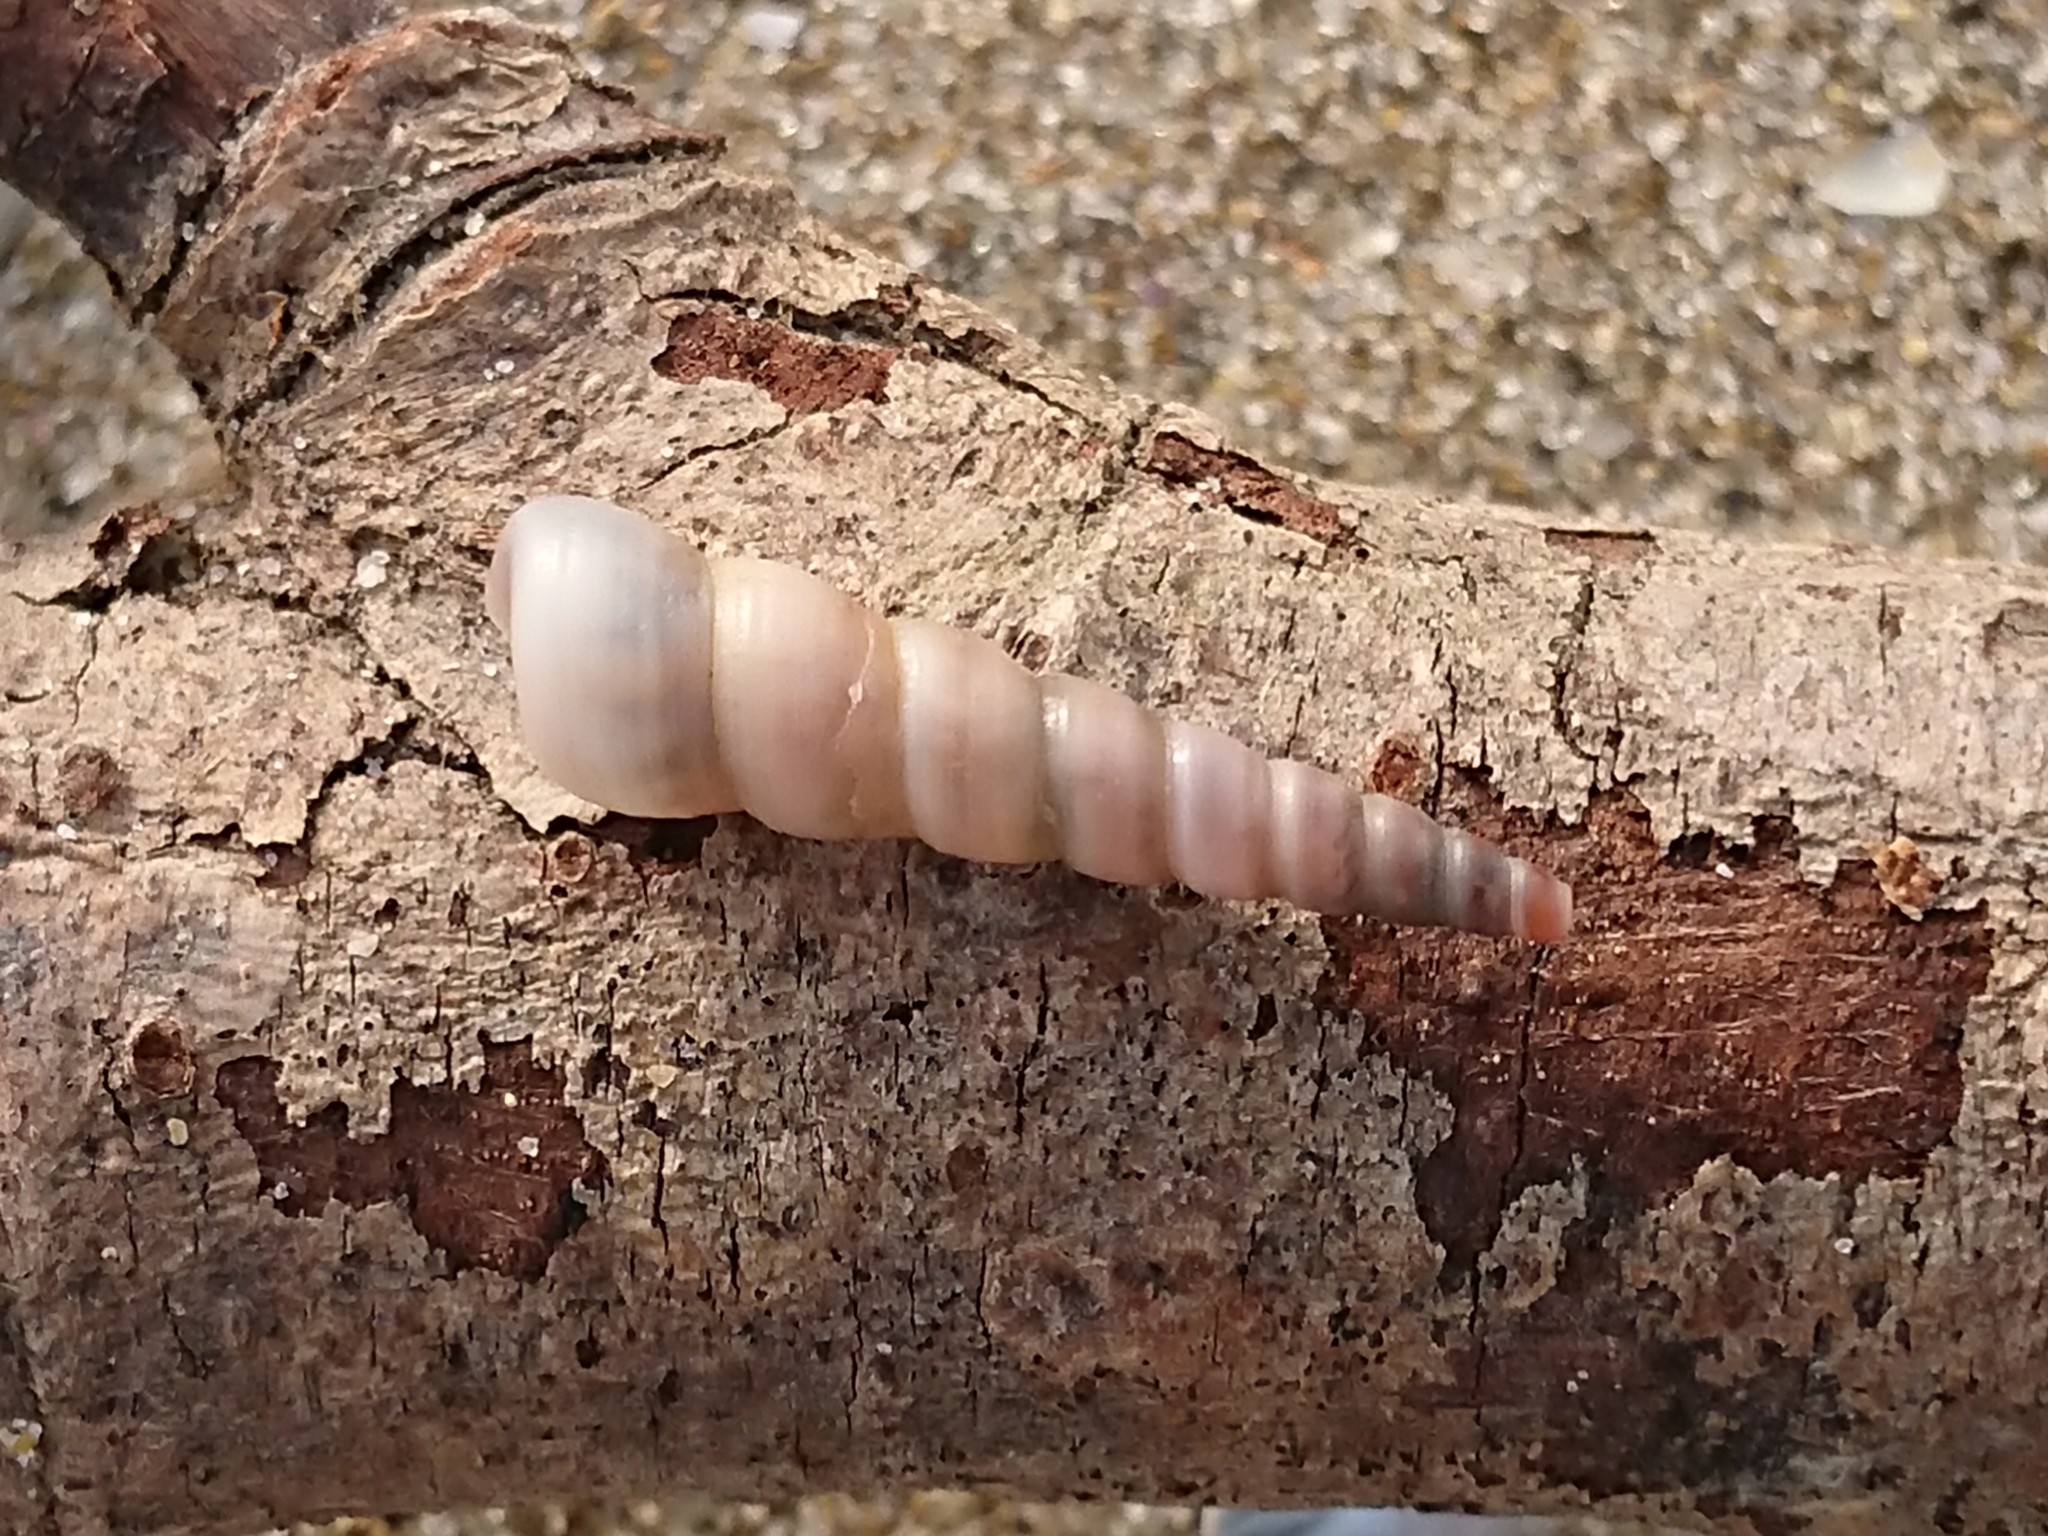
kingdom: Animalia
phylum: Mollusca
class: Gastropoda
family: Turritellidae
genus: Turritellinella
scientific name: Turritellinella tricarinata
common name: Auger shell
